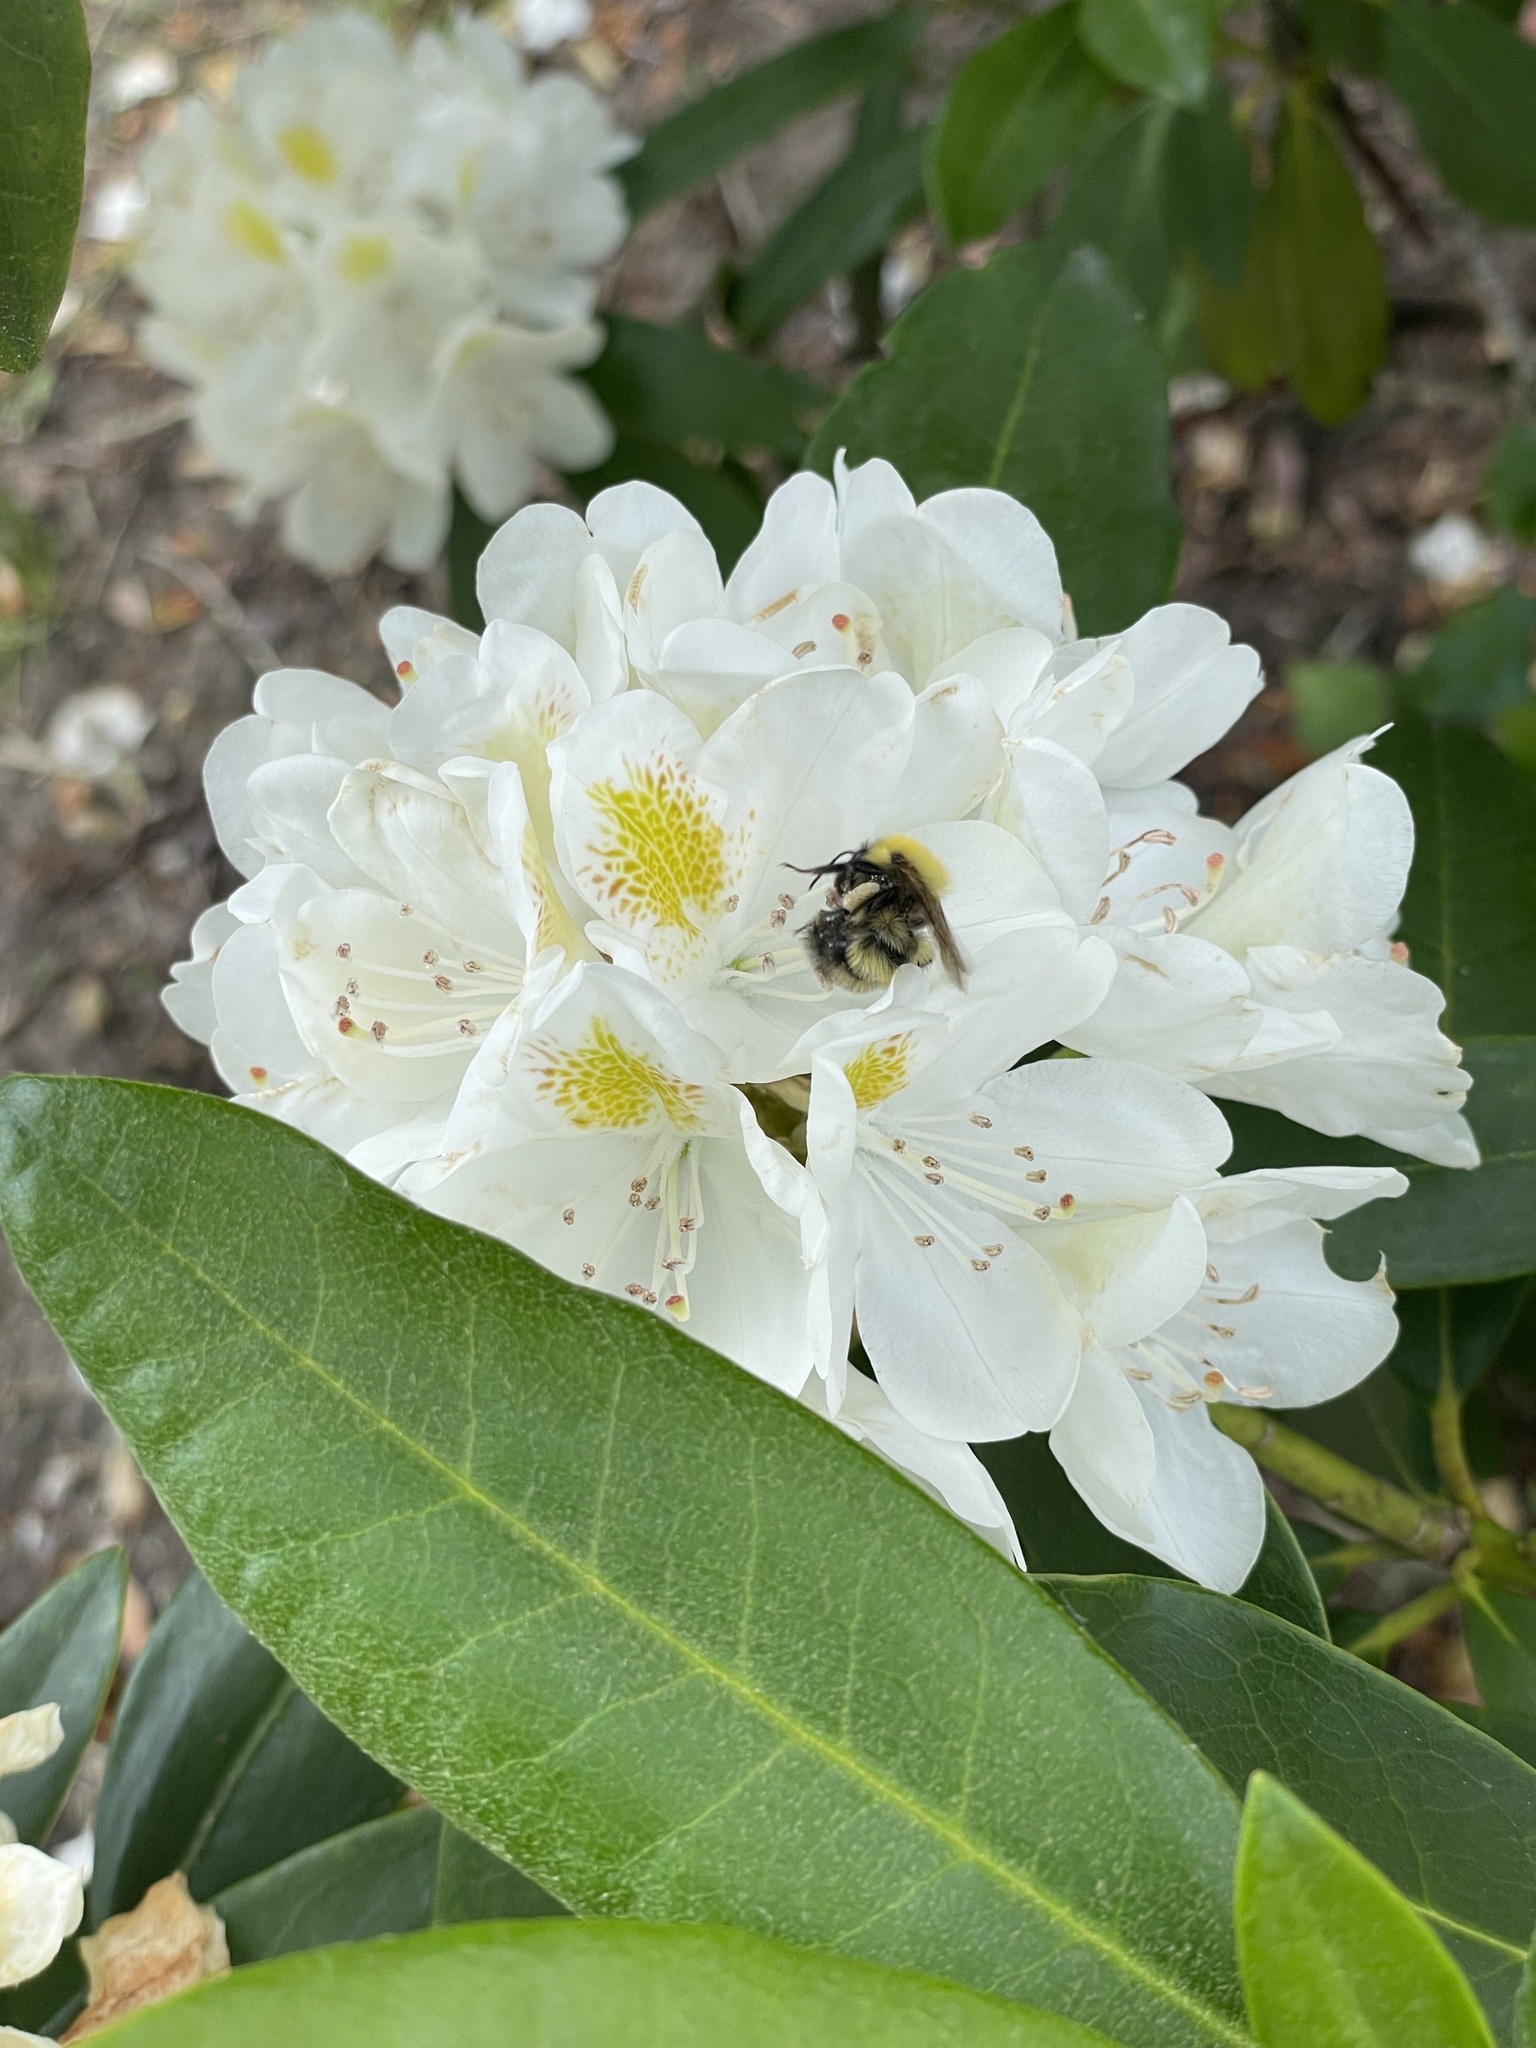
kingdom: Animalia
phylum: Arthropoda
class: Insecta
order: Hymenoptera
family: Apidae
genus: Bombus
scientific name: Bombus perplexus
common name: Confusing bumble bee
